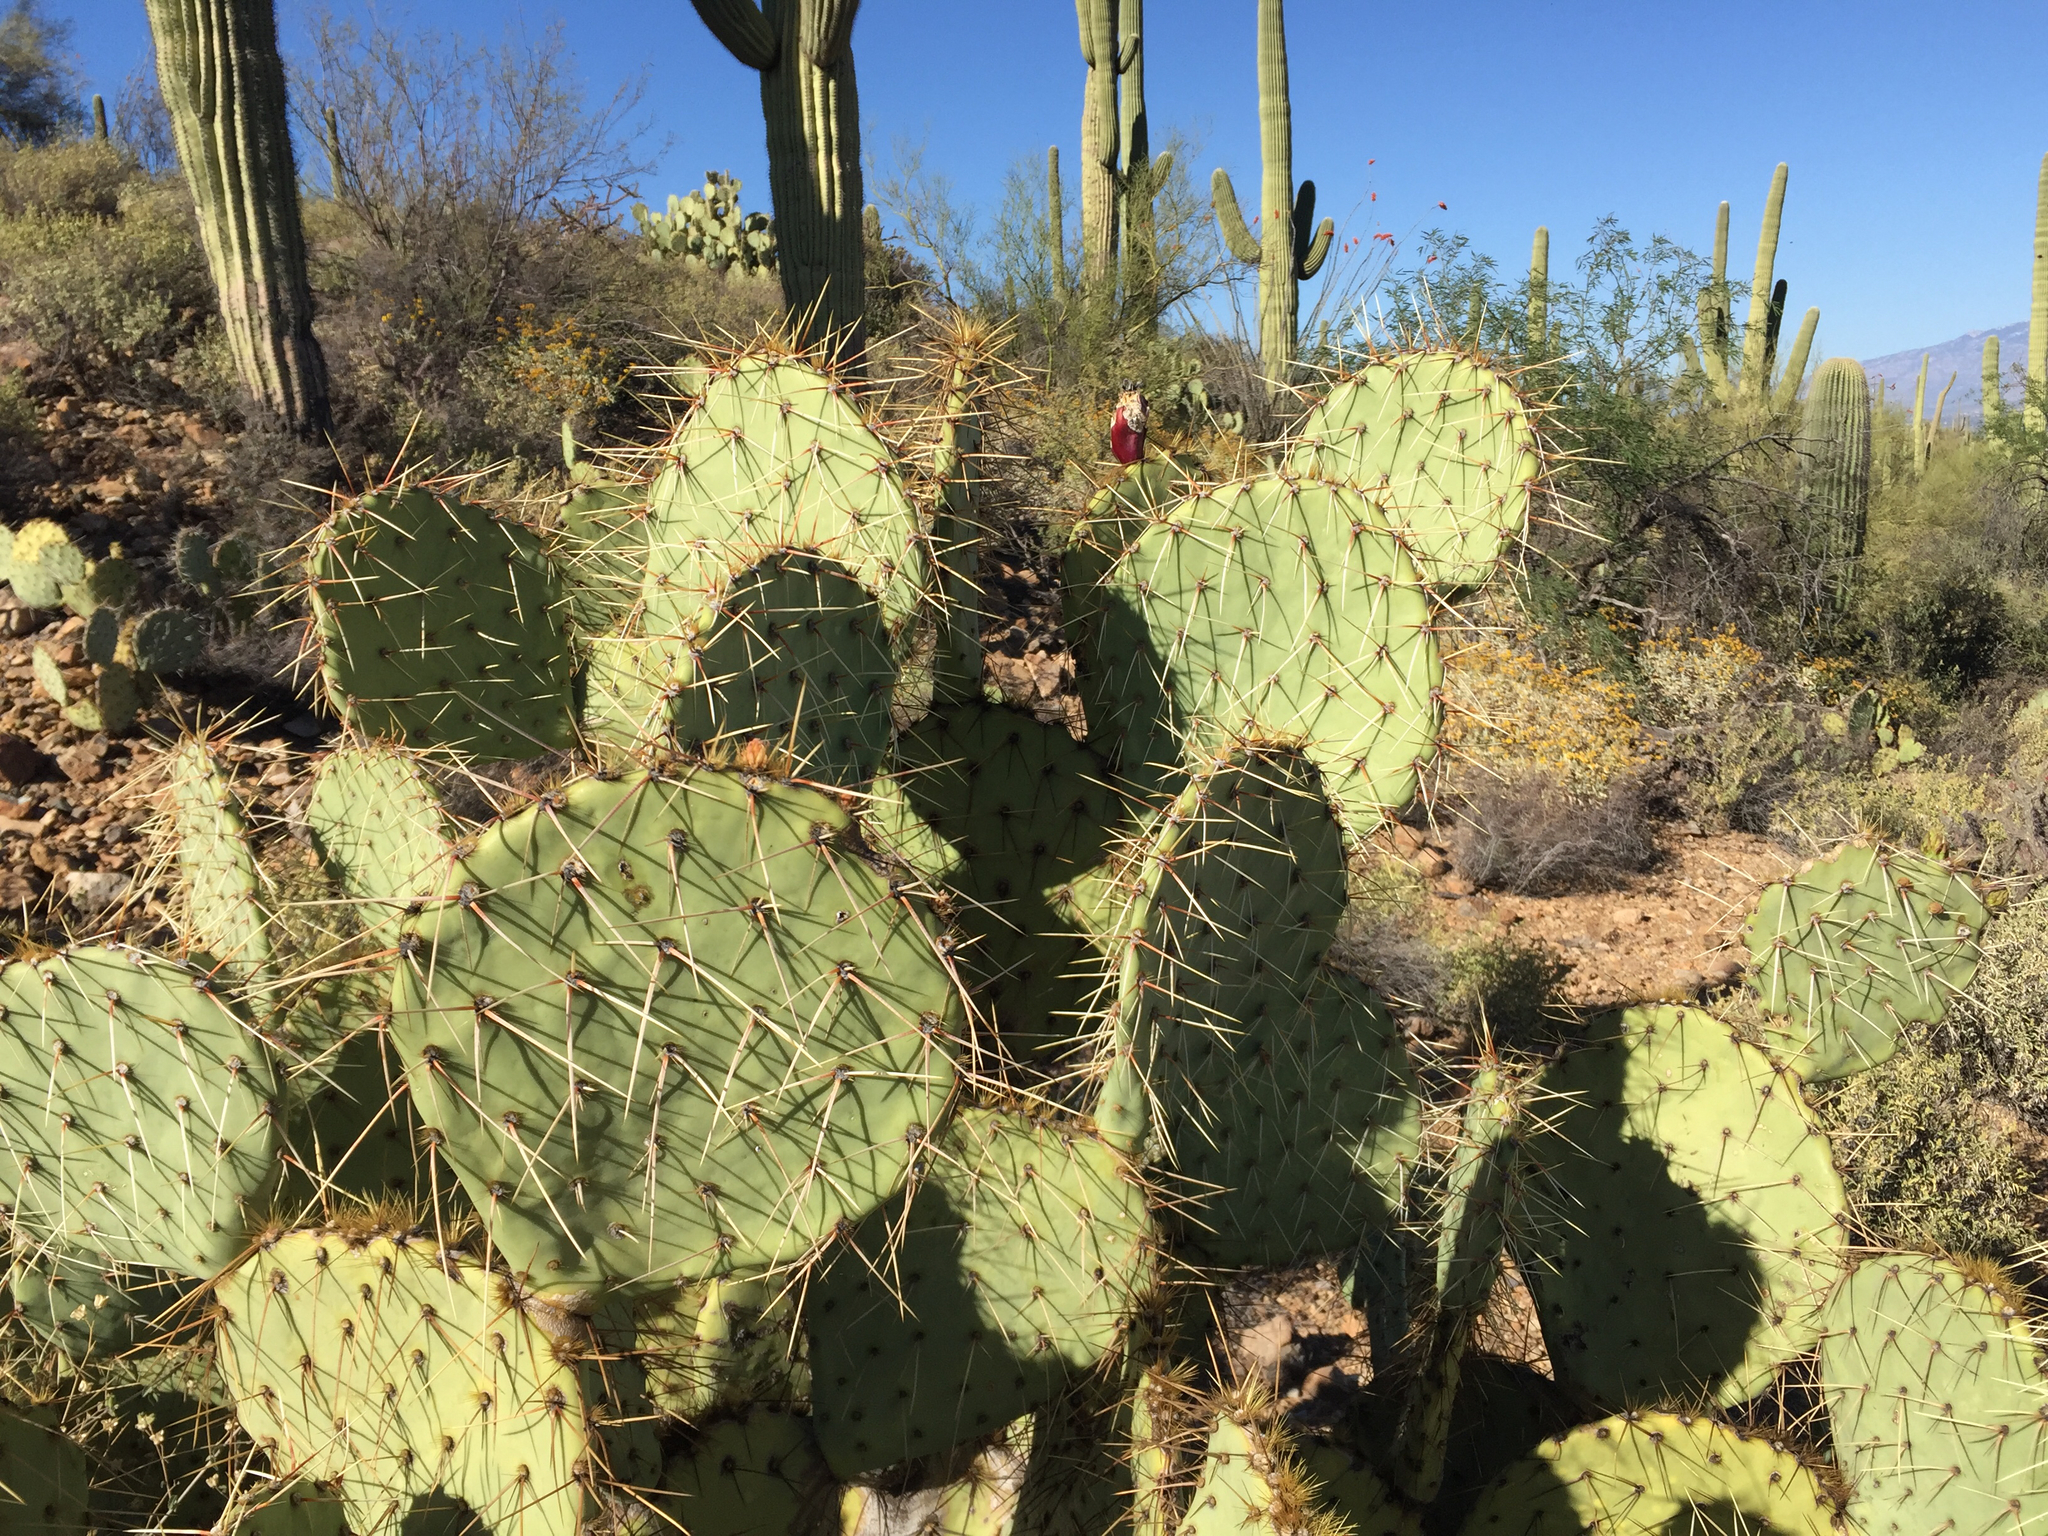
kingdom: Plantae
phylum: Tracheophyta
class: Magnoliopsida
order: Caryophyllales
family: Cactaceae
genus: Opuntia
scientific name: Opuntia engelmannii
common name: Cactus-apple
